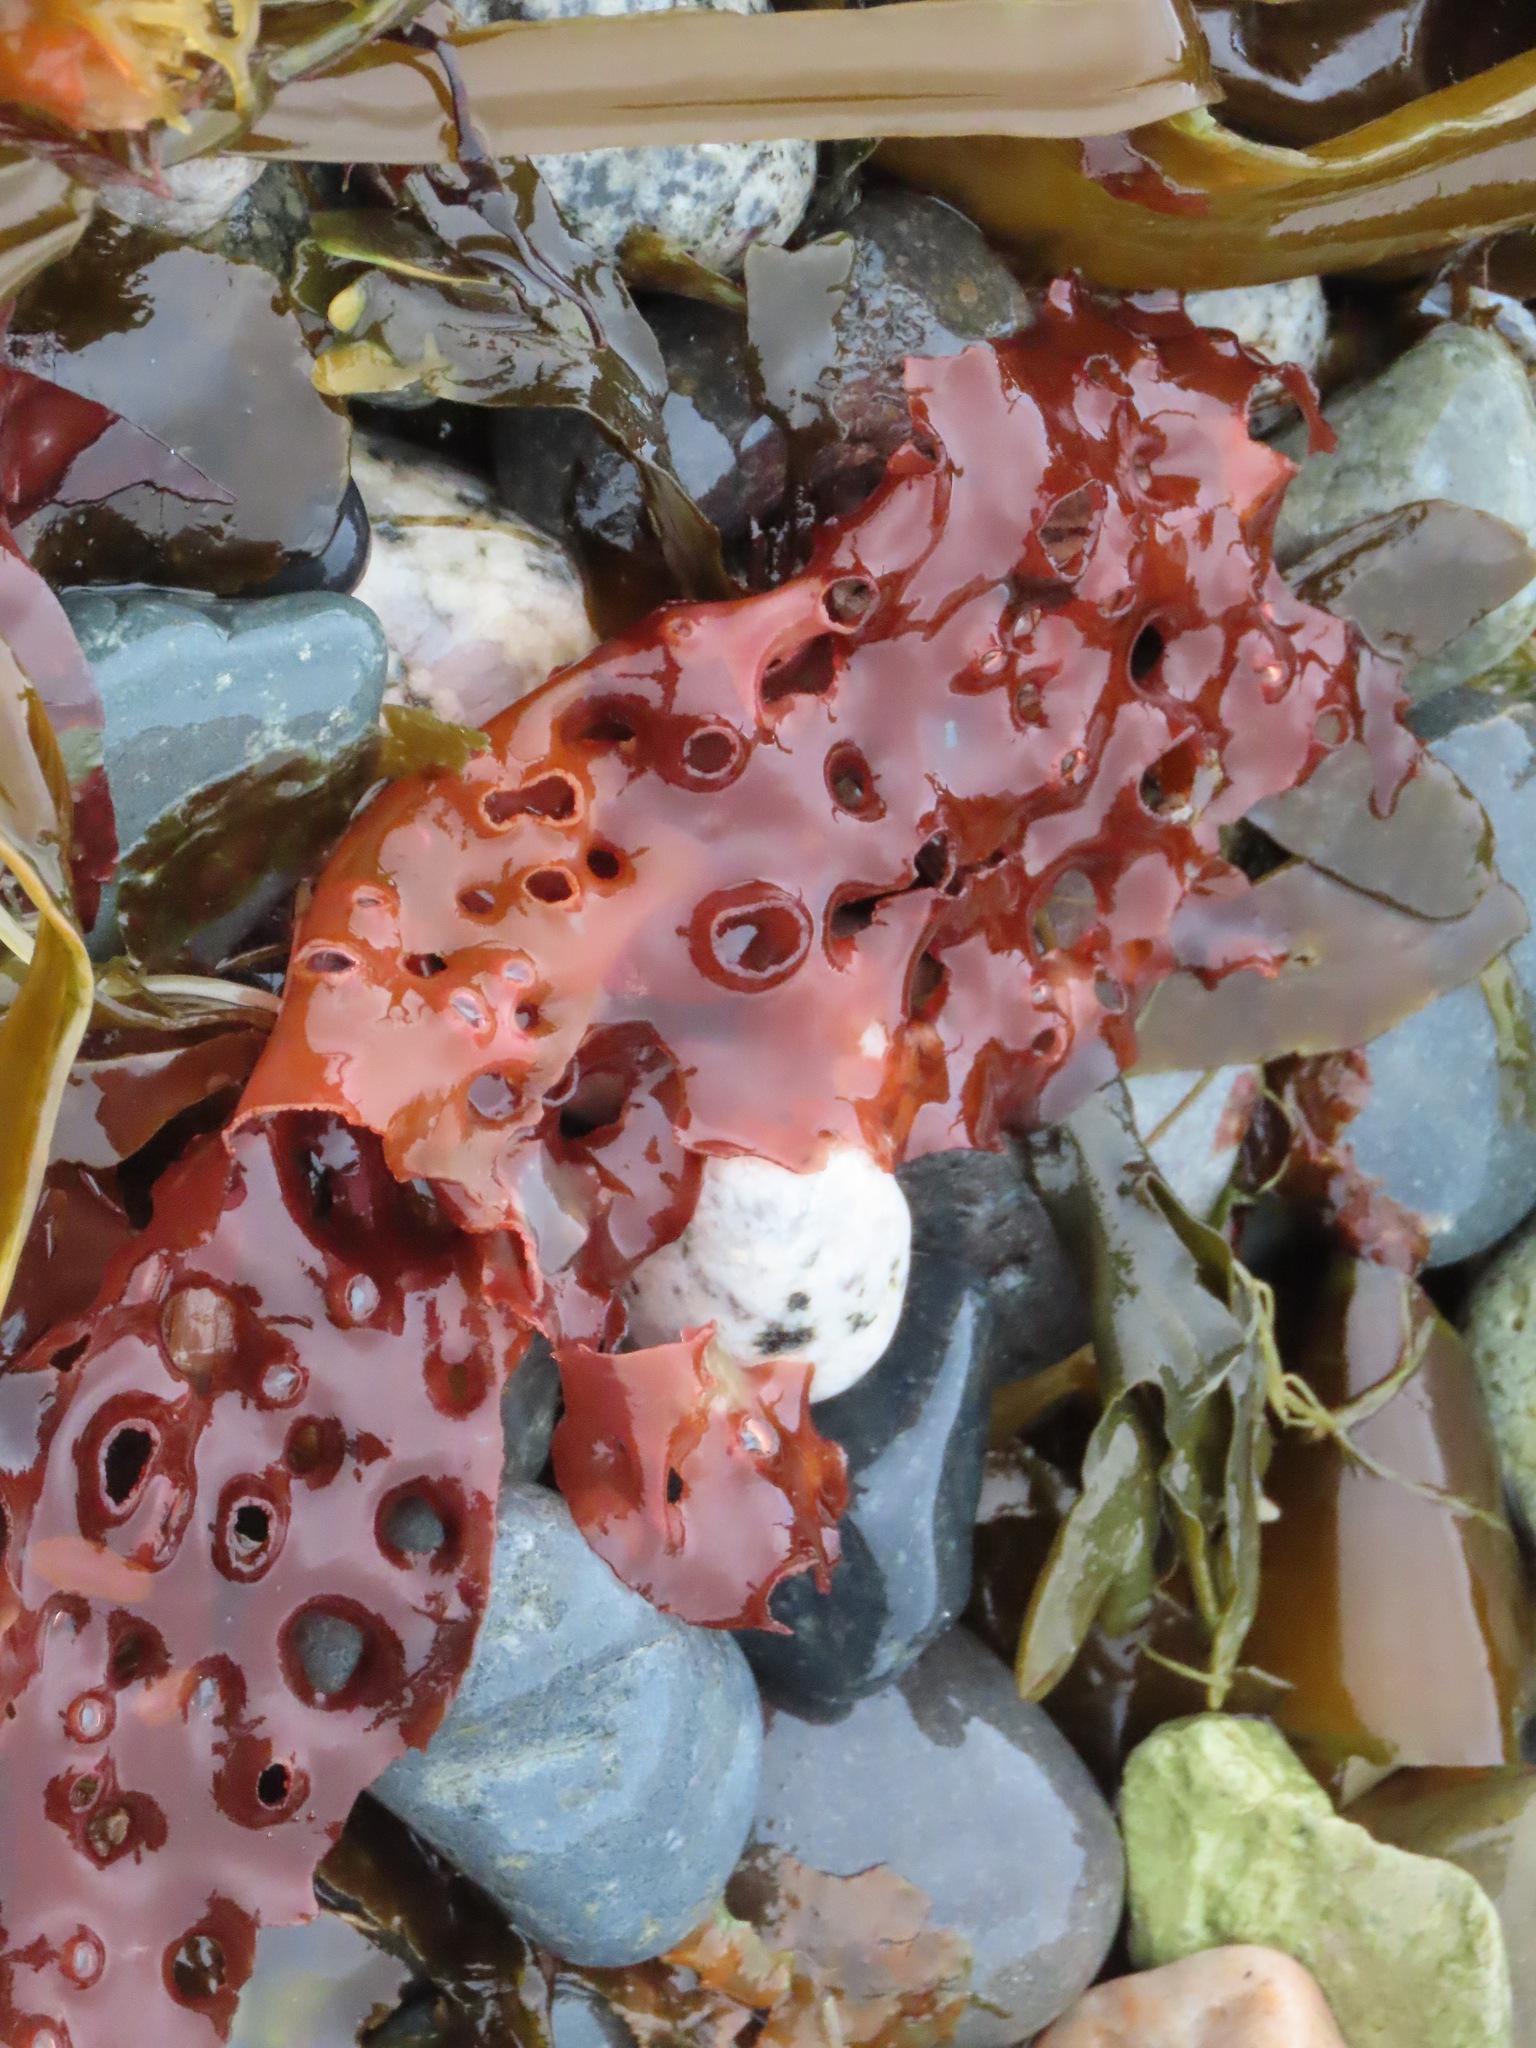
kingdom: Plantae
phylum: Rhodophyta
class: Florideophyceae
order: Rhodymeniales
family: Rhodymeniaceae
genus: Sparlingia
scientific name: Sparlingia pertusa
